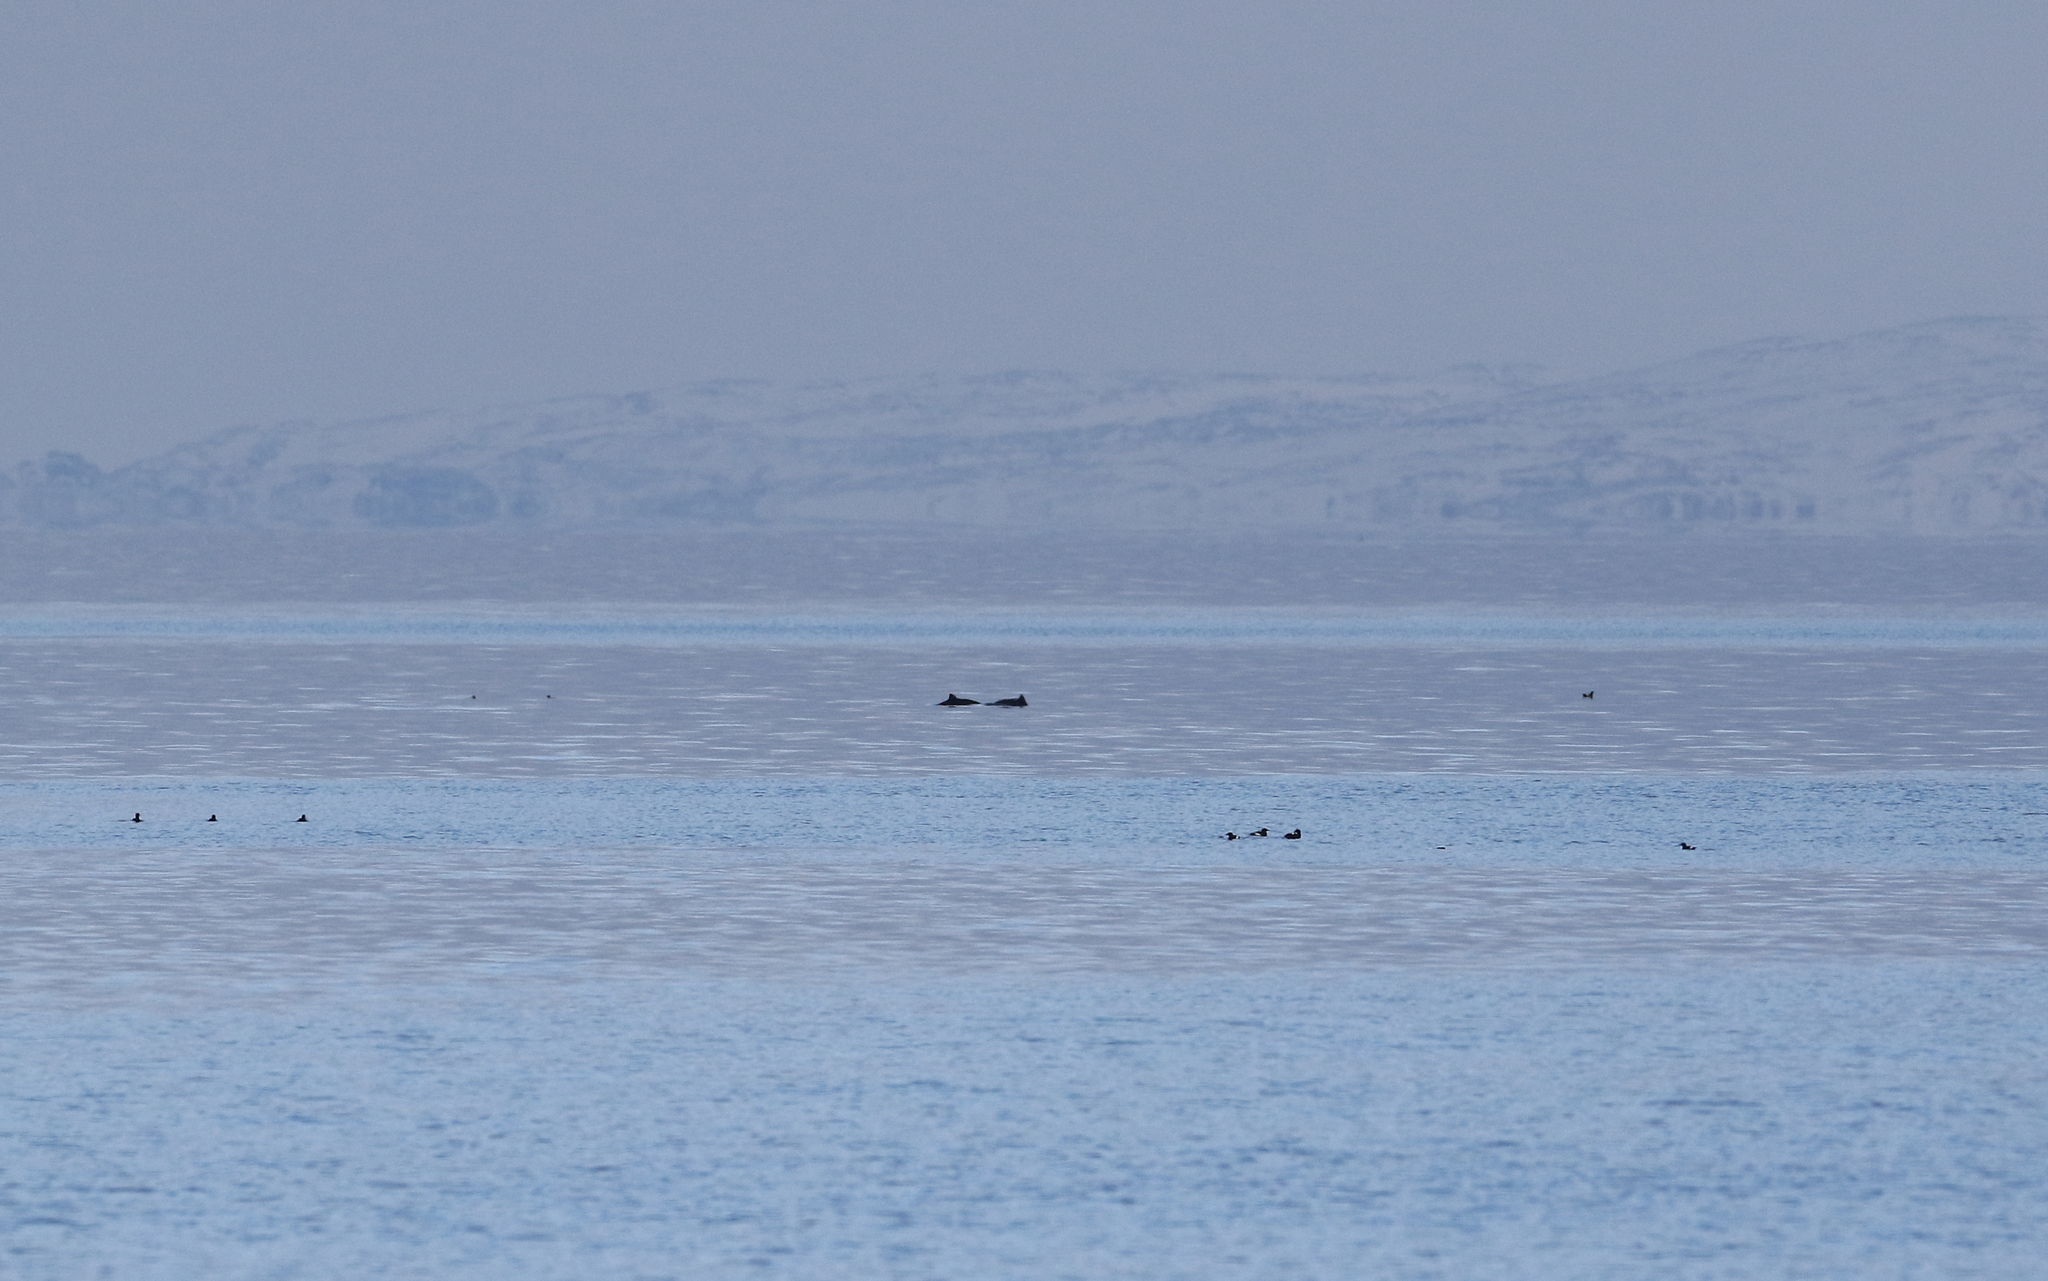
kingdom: Animalia
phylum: Chordata
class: Mammalia
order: Cetacea
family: Phocoenidae
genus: Phocoena
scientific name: Phocoena phocoena
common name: Harbor porpoise
